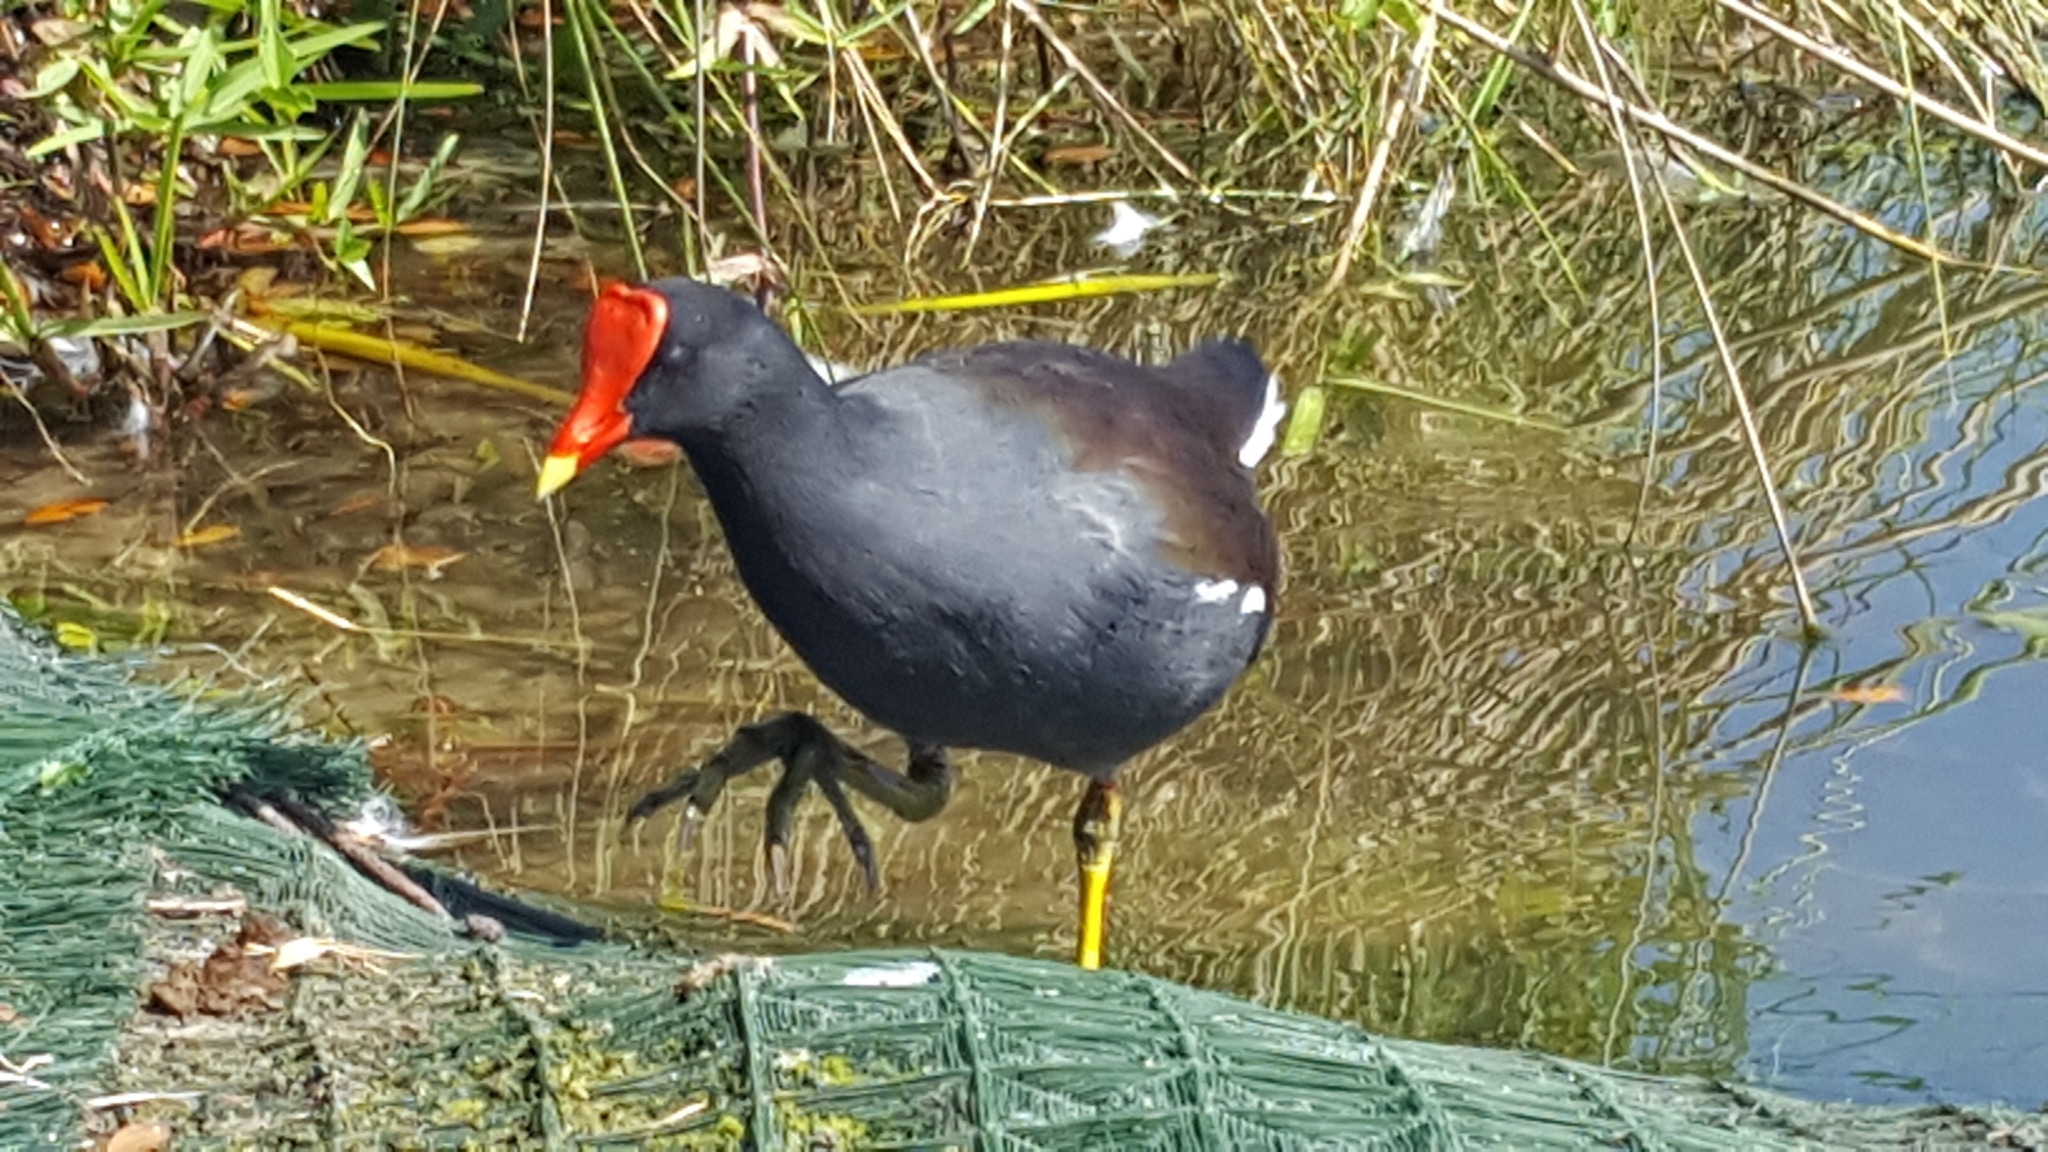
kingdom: Animalia
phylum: Chordata
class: Aves
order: Gruiformes
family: Rallidae
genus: Gallinula
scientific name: Gallinula chloropus
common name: Common moorhen
